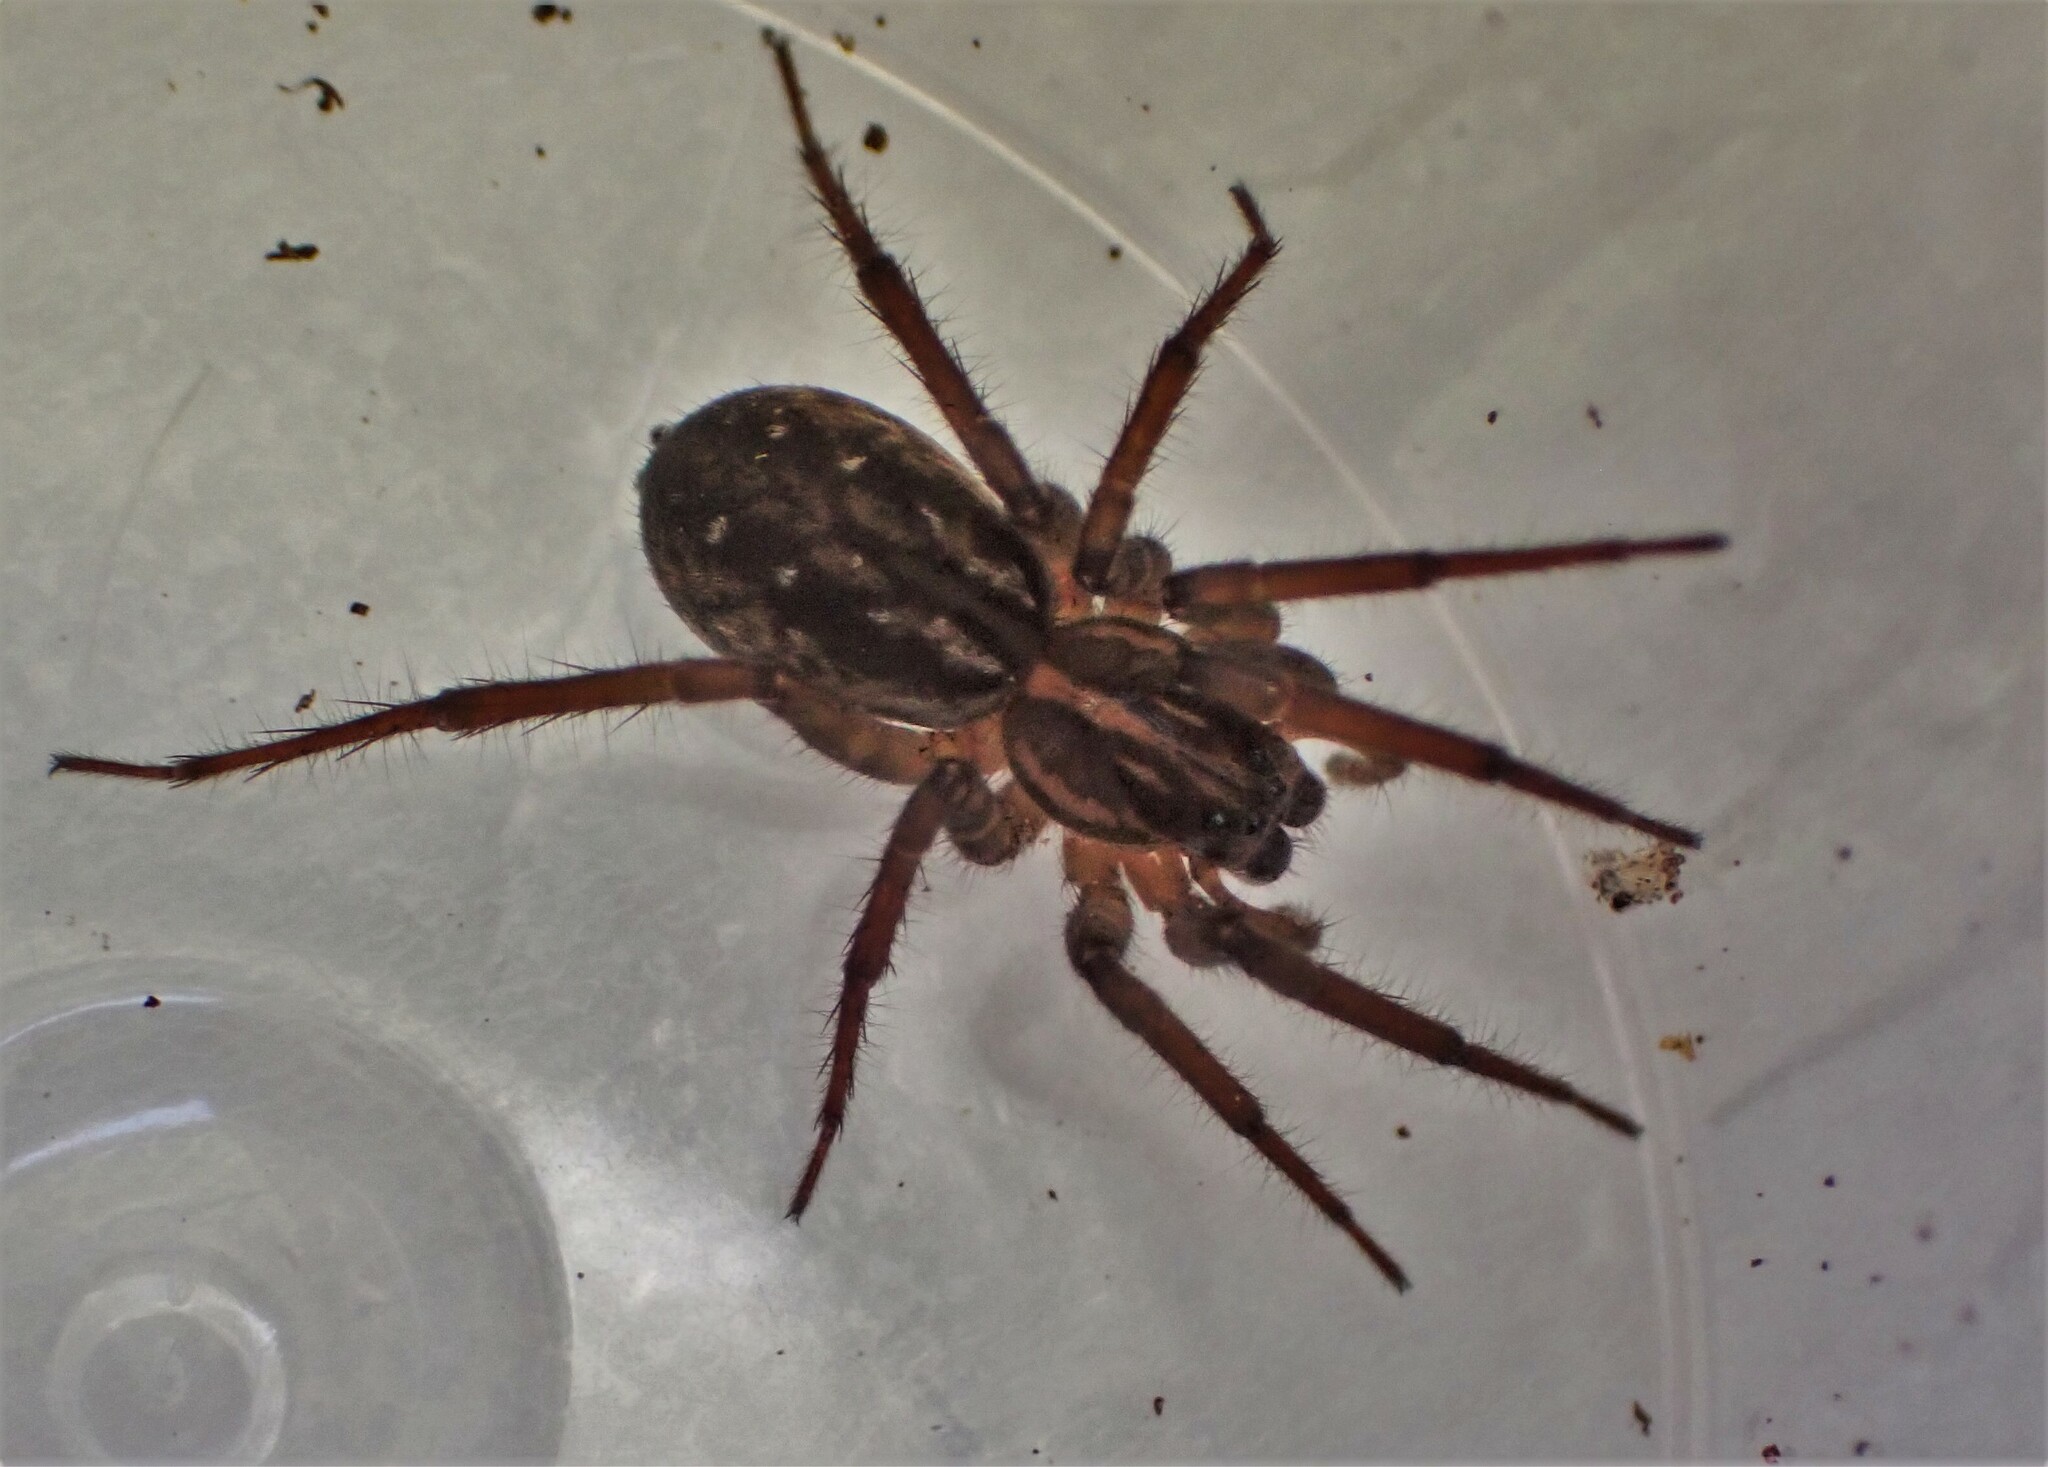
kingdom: Animalia
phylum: Arthropoda
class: Arachnida
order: Araneae
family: Lycosidae
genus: Allotrochosina
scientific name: Allotrochosina schauinslandi
